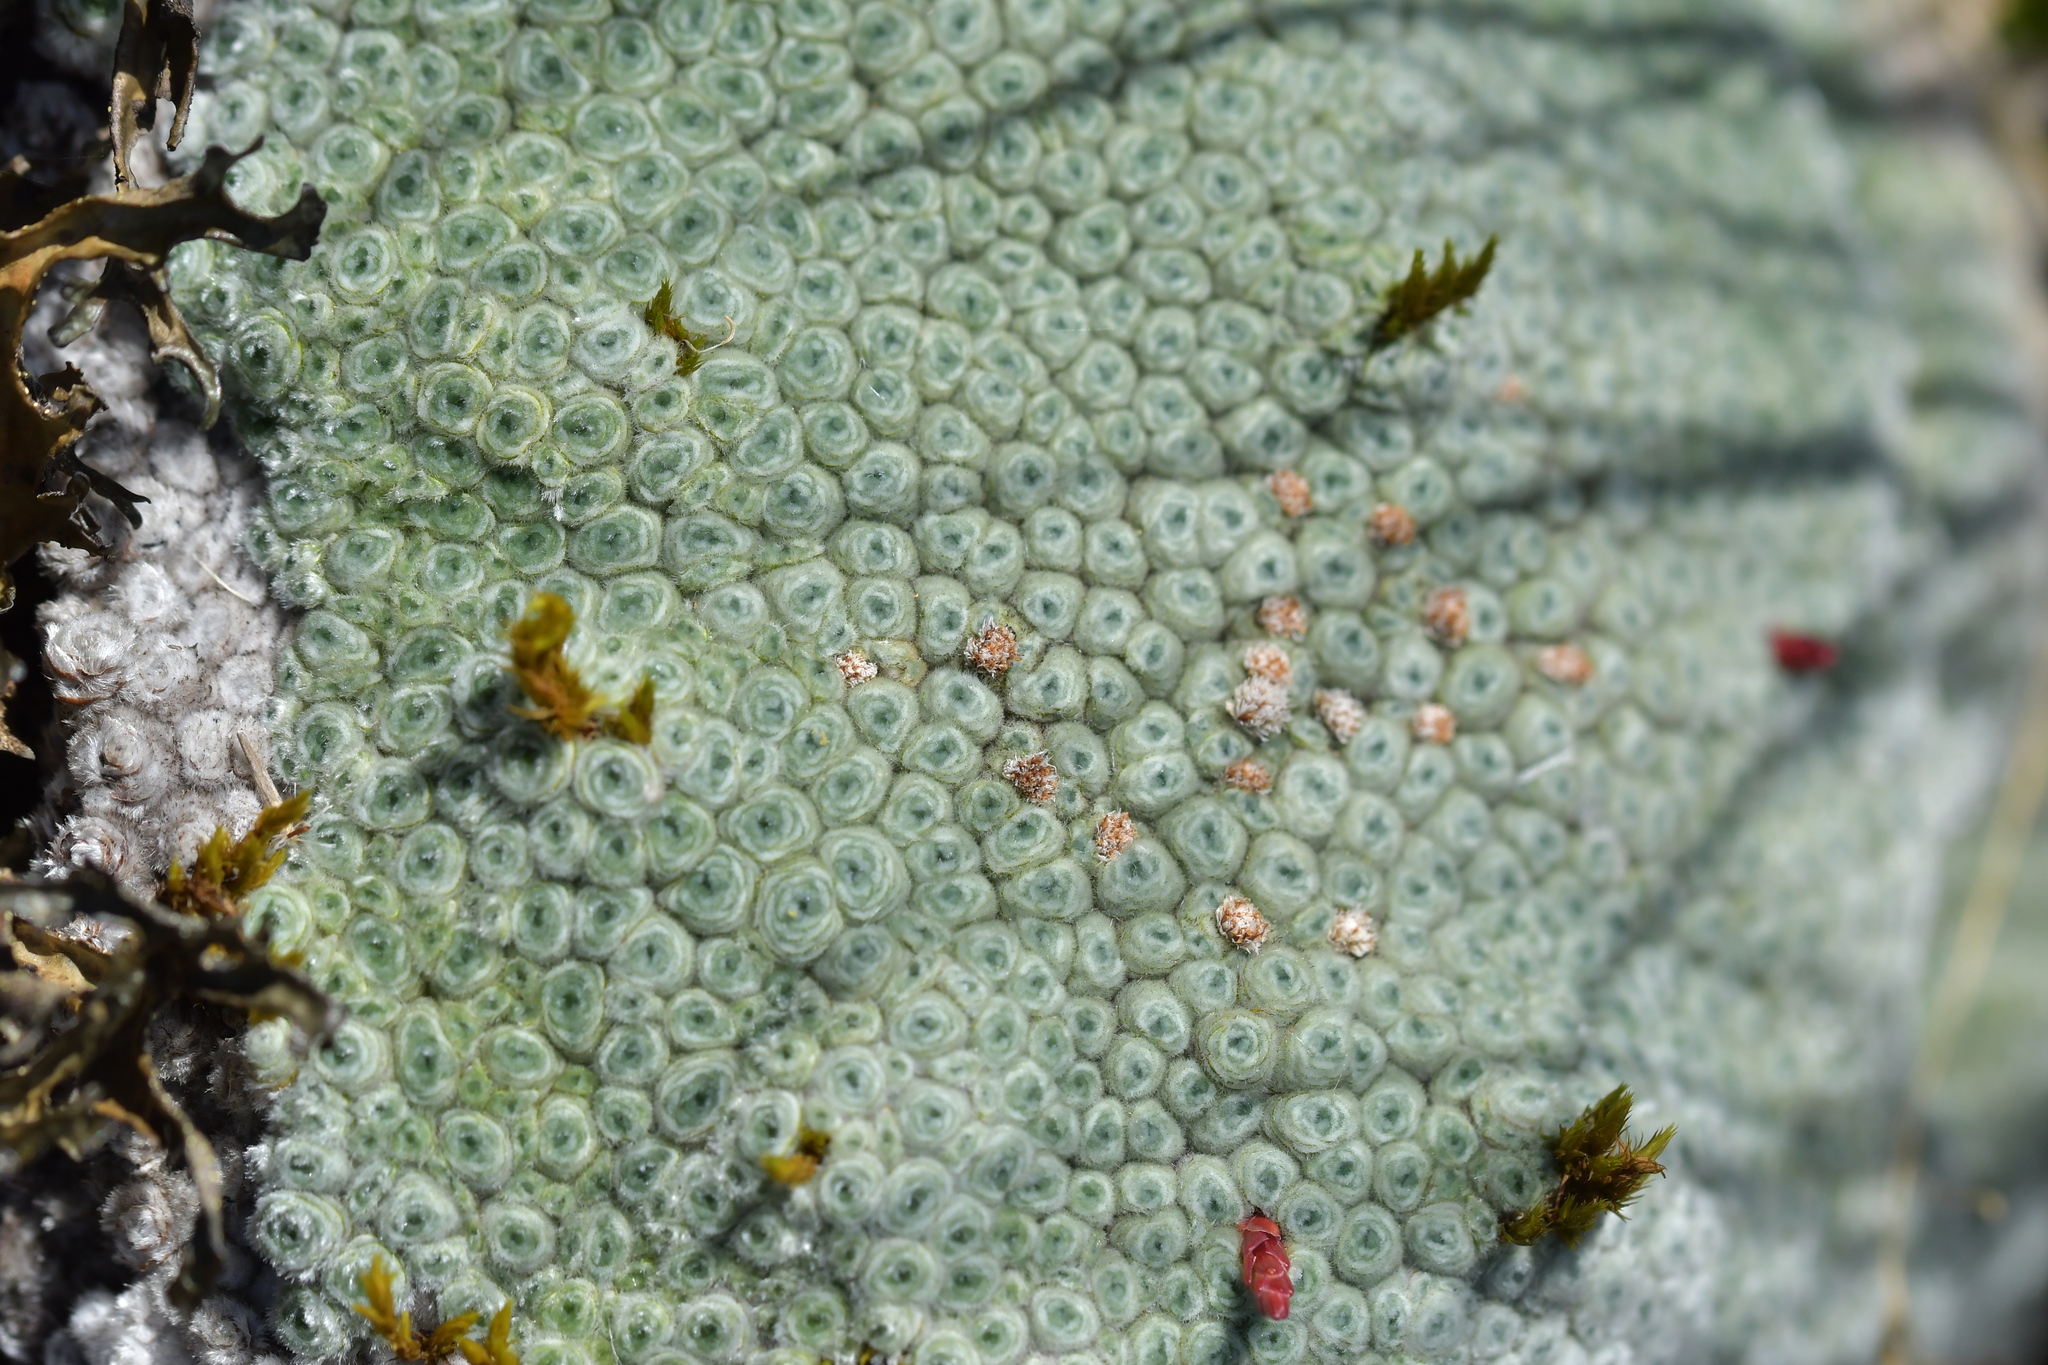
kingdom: Plantae
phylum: Tracheophyta
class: Magnoliopsida
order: Asterales
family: Asteraceae
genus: Raoulia
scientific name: Raoulia rubra
